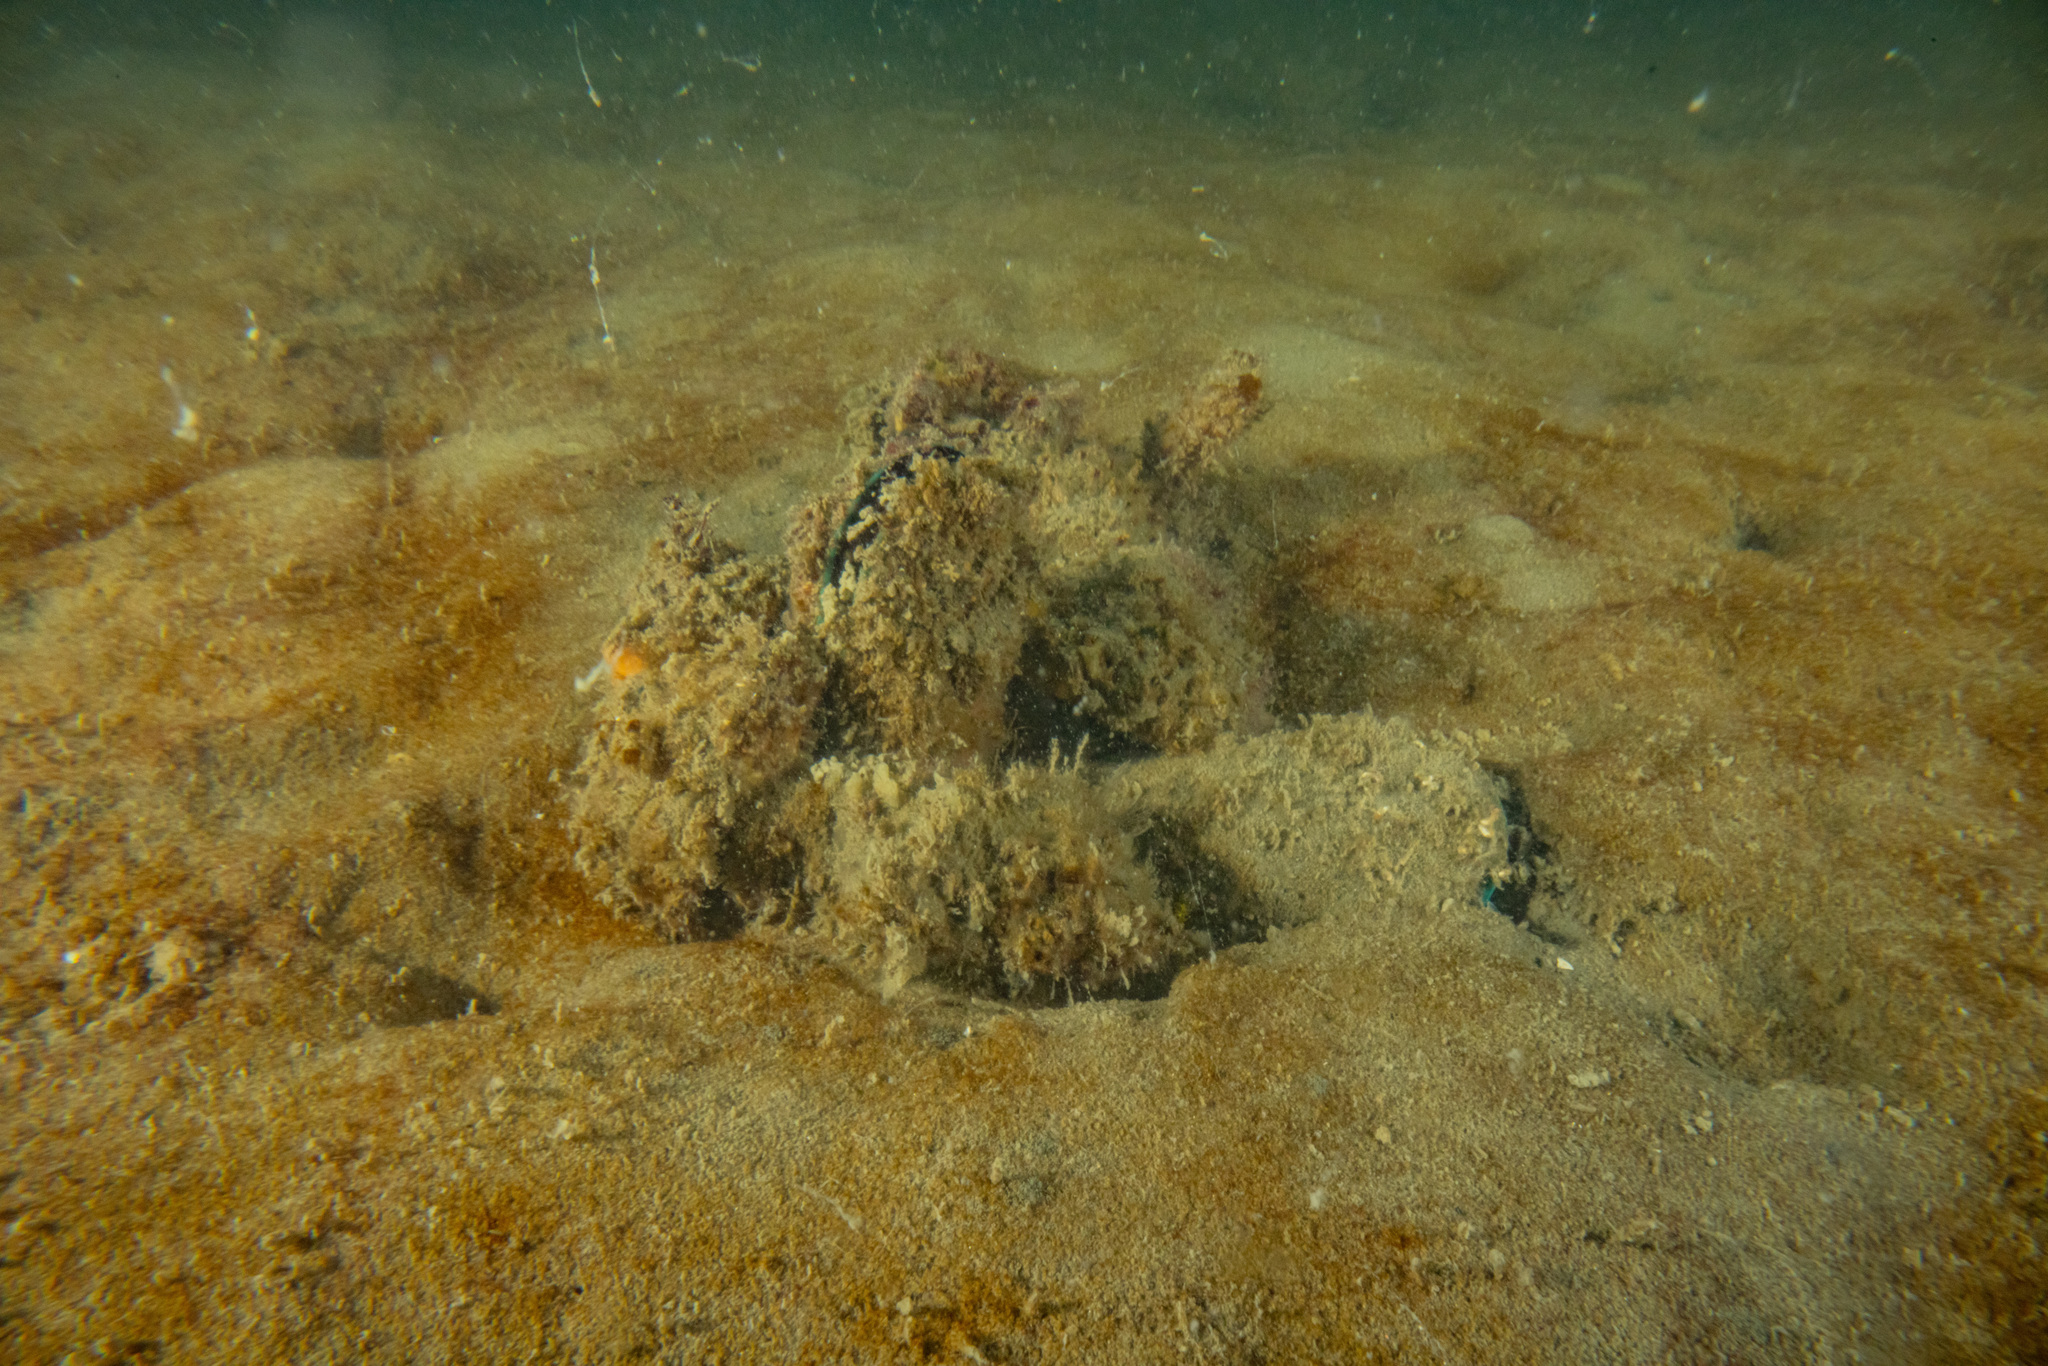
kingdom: Animalia
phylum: Mollusca
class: Bivalvia
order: Mytilida
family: Mytilidae
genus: Perna
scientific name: Perna canaliculus
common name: New zealand greenshelltm
